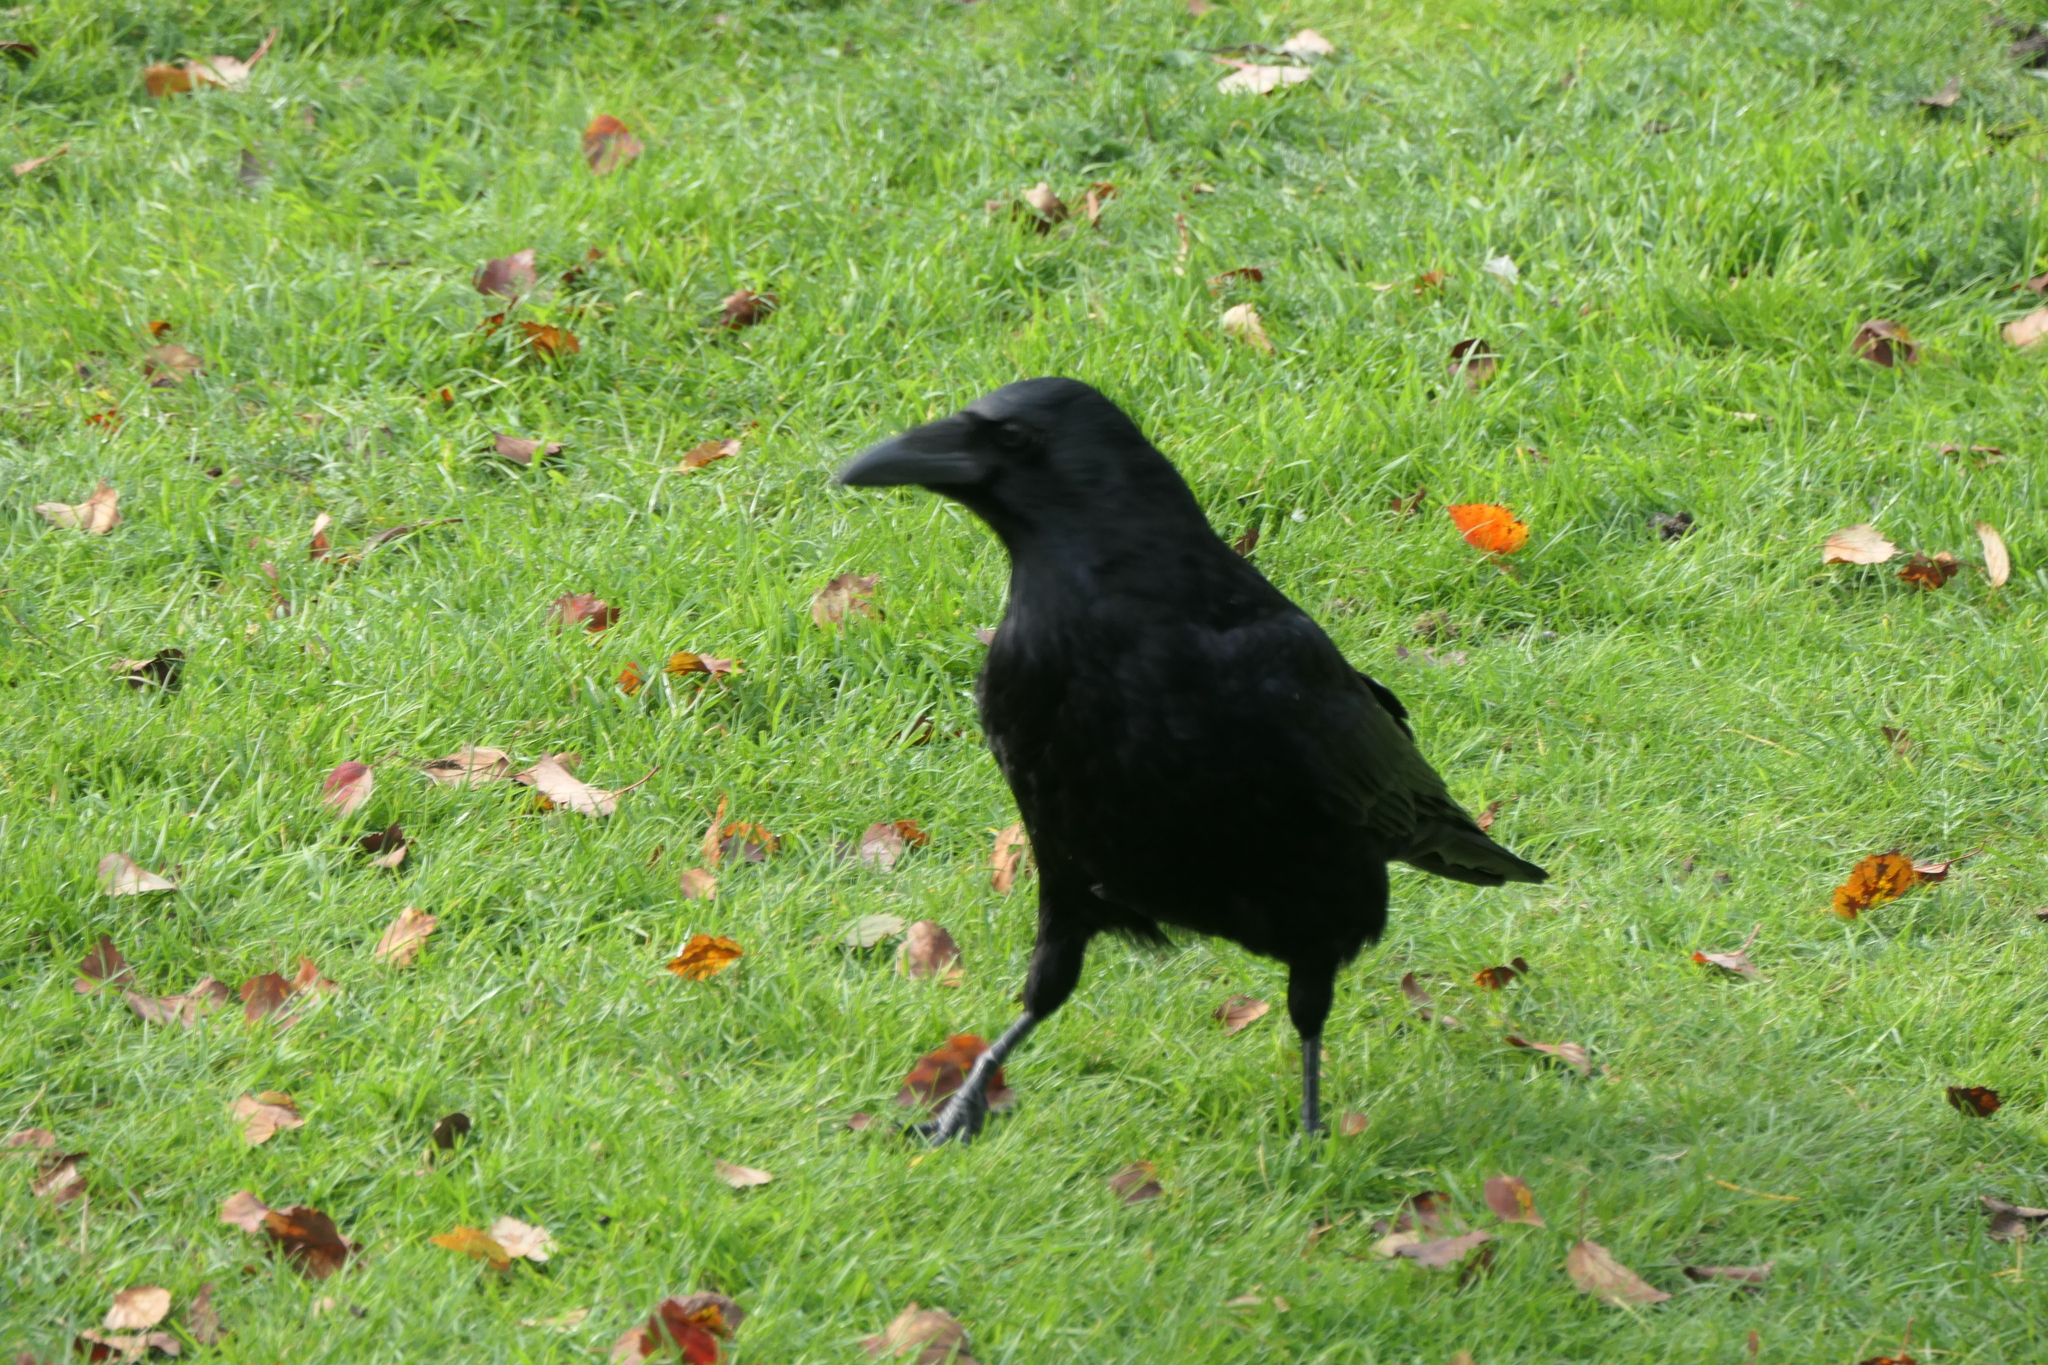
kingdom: Animalia
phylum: Chordata
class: Aves
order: Passeriformes
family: Corvidae
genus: Corvus
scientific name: Corvus corone
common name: Carrion crow
